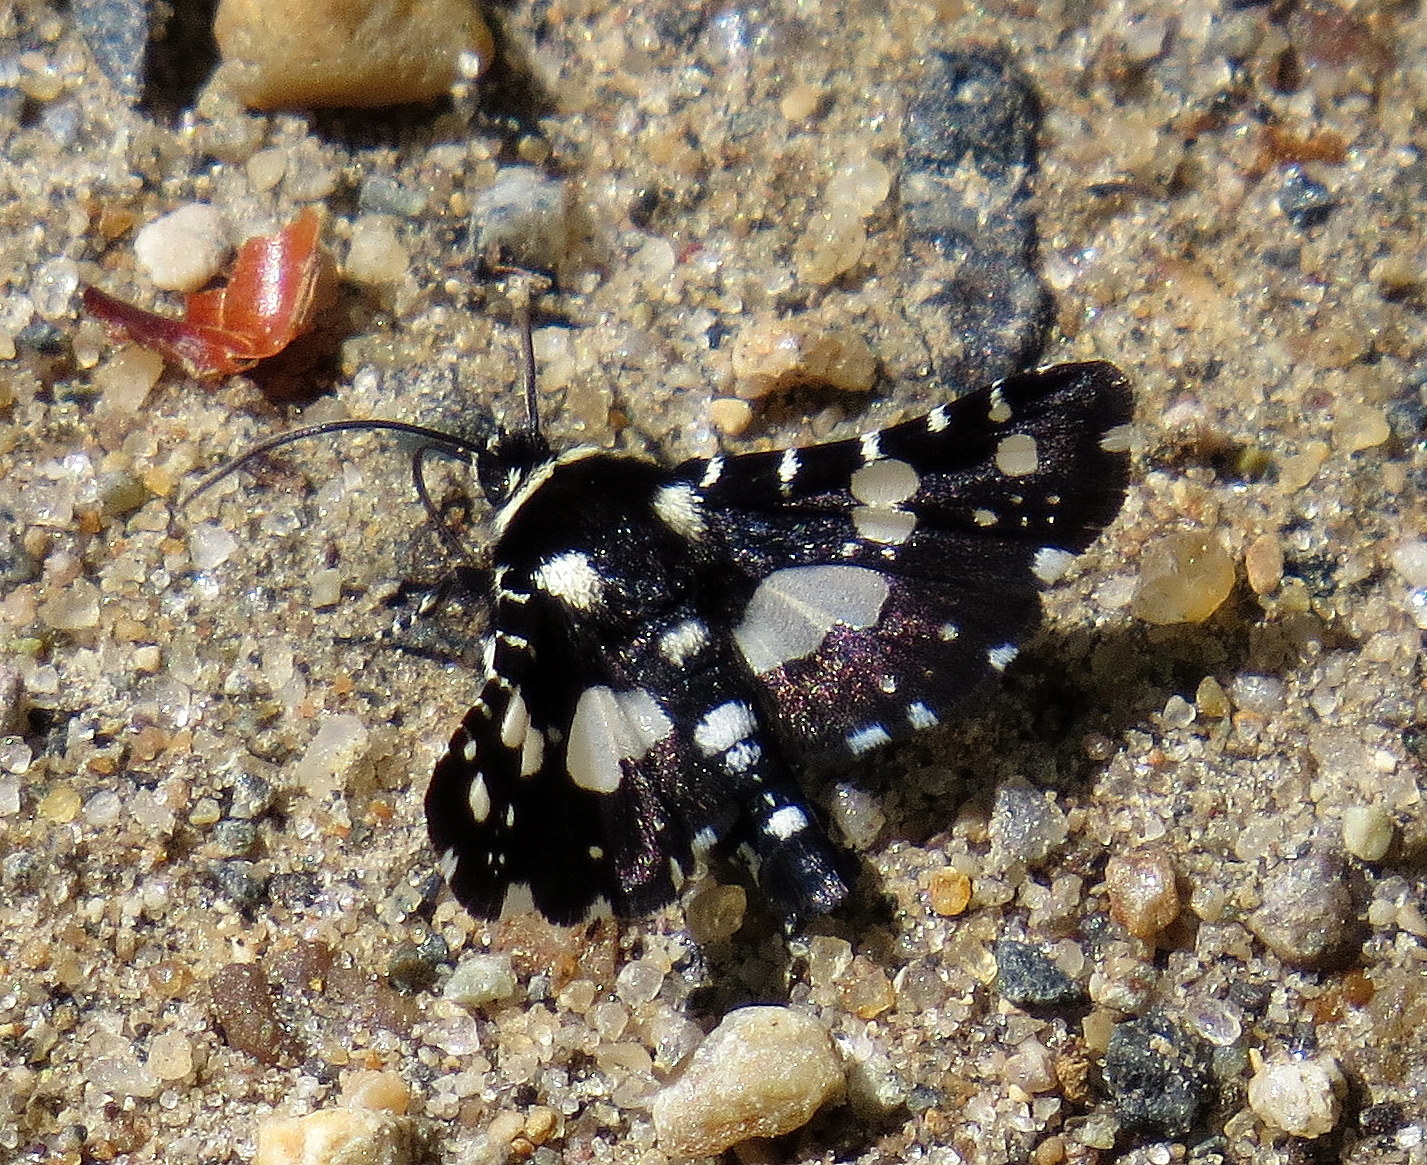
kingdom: Animalia
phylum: Arthropoda
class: Insecta
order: Lepidoptera
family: Thyrididae
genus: Pseudothyris
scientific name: Pseudothyris sepulchralis
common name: Mournful thyris moth
